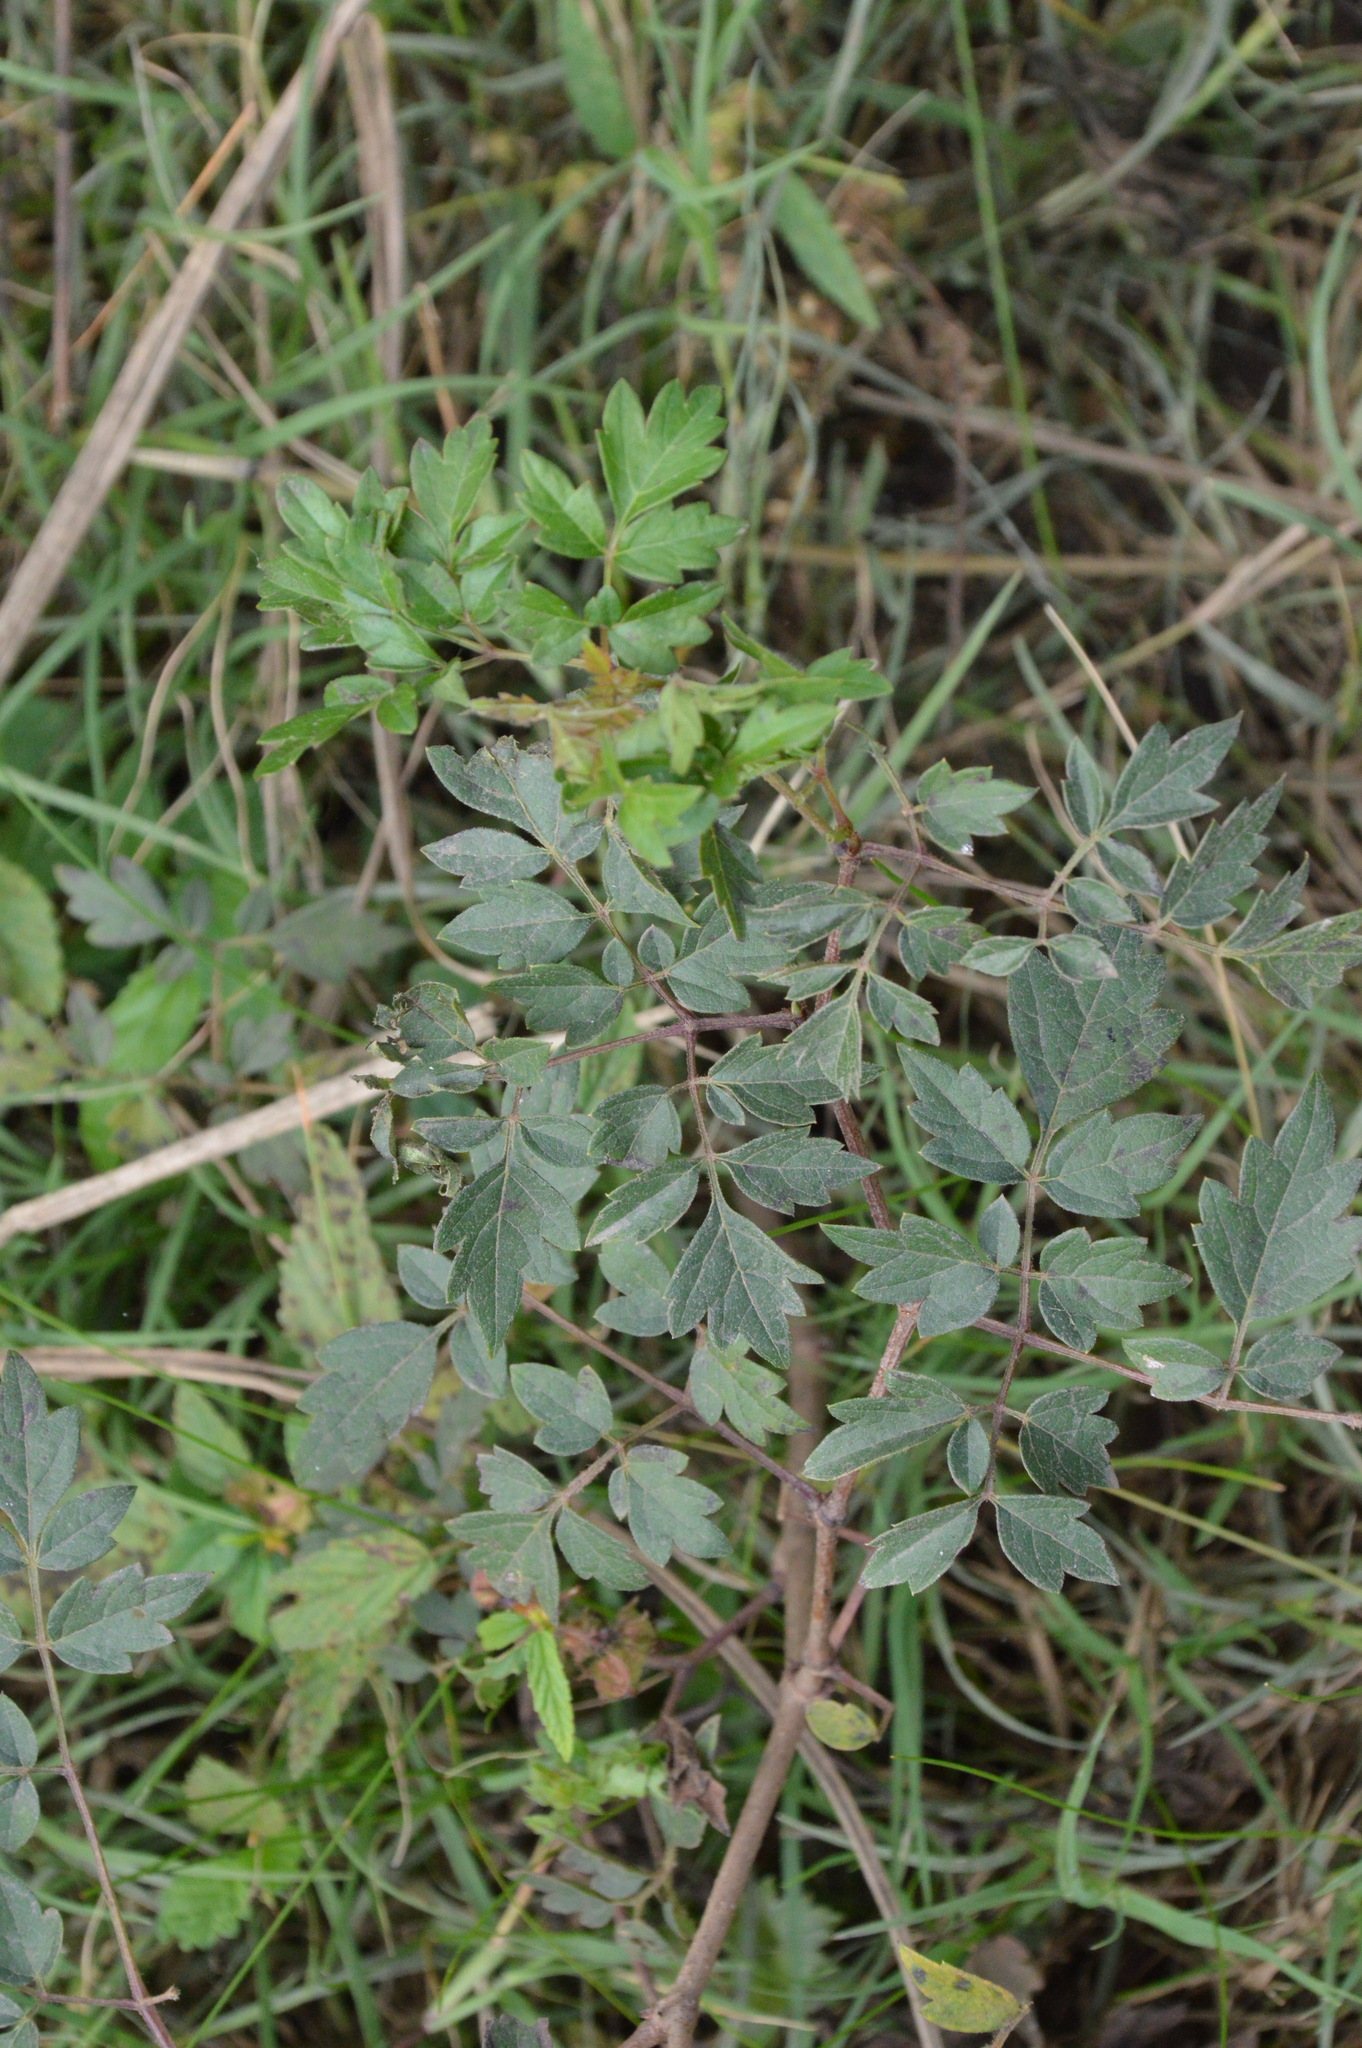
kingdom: Plantae
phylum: Tracheophyta
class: Magnoliopsida
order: Vitales
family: Vitaceae
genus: Nekemias
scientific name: Nekemias arborea
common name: Peppervine
